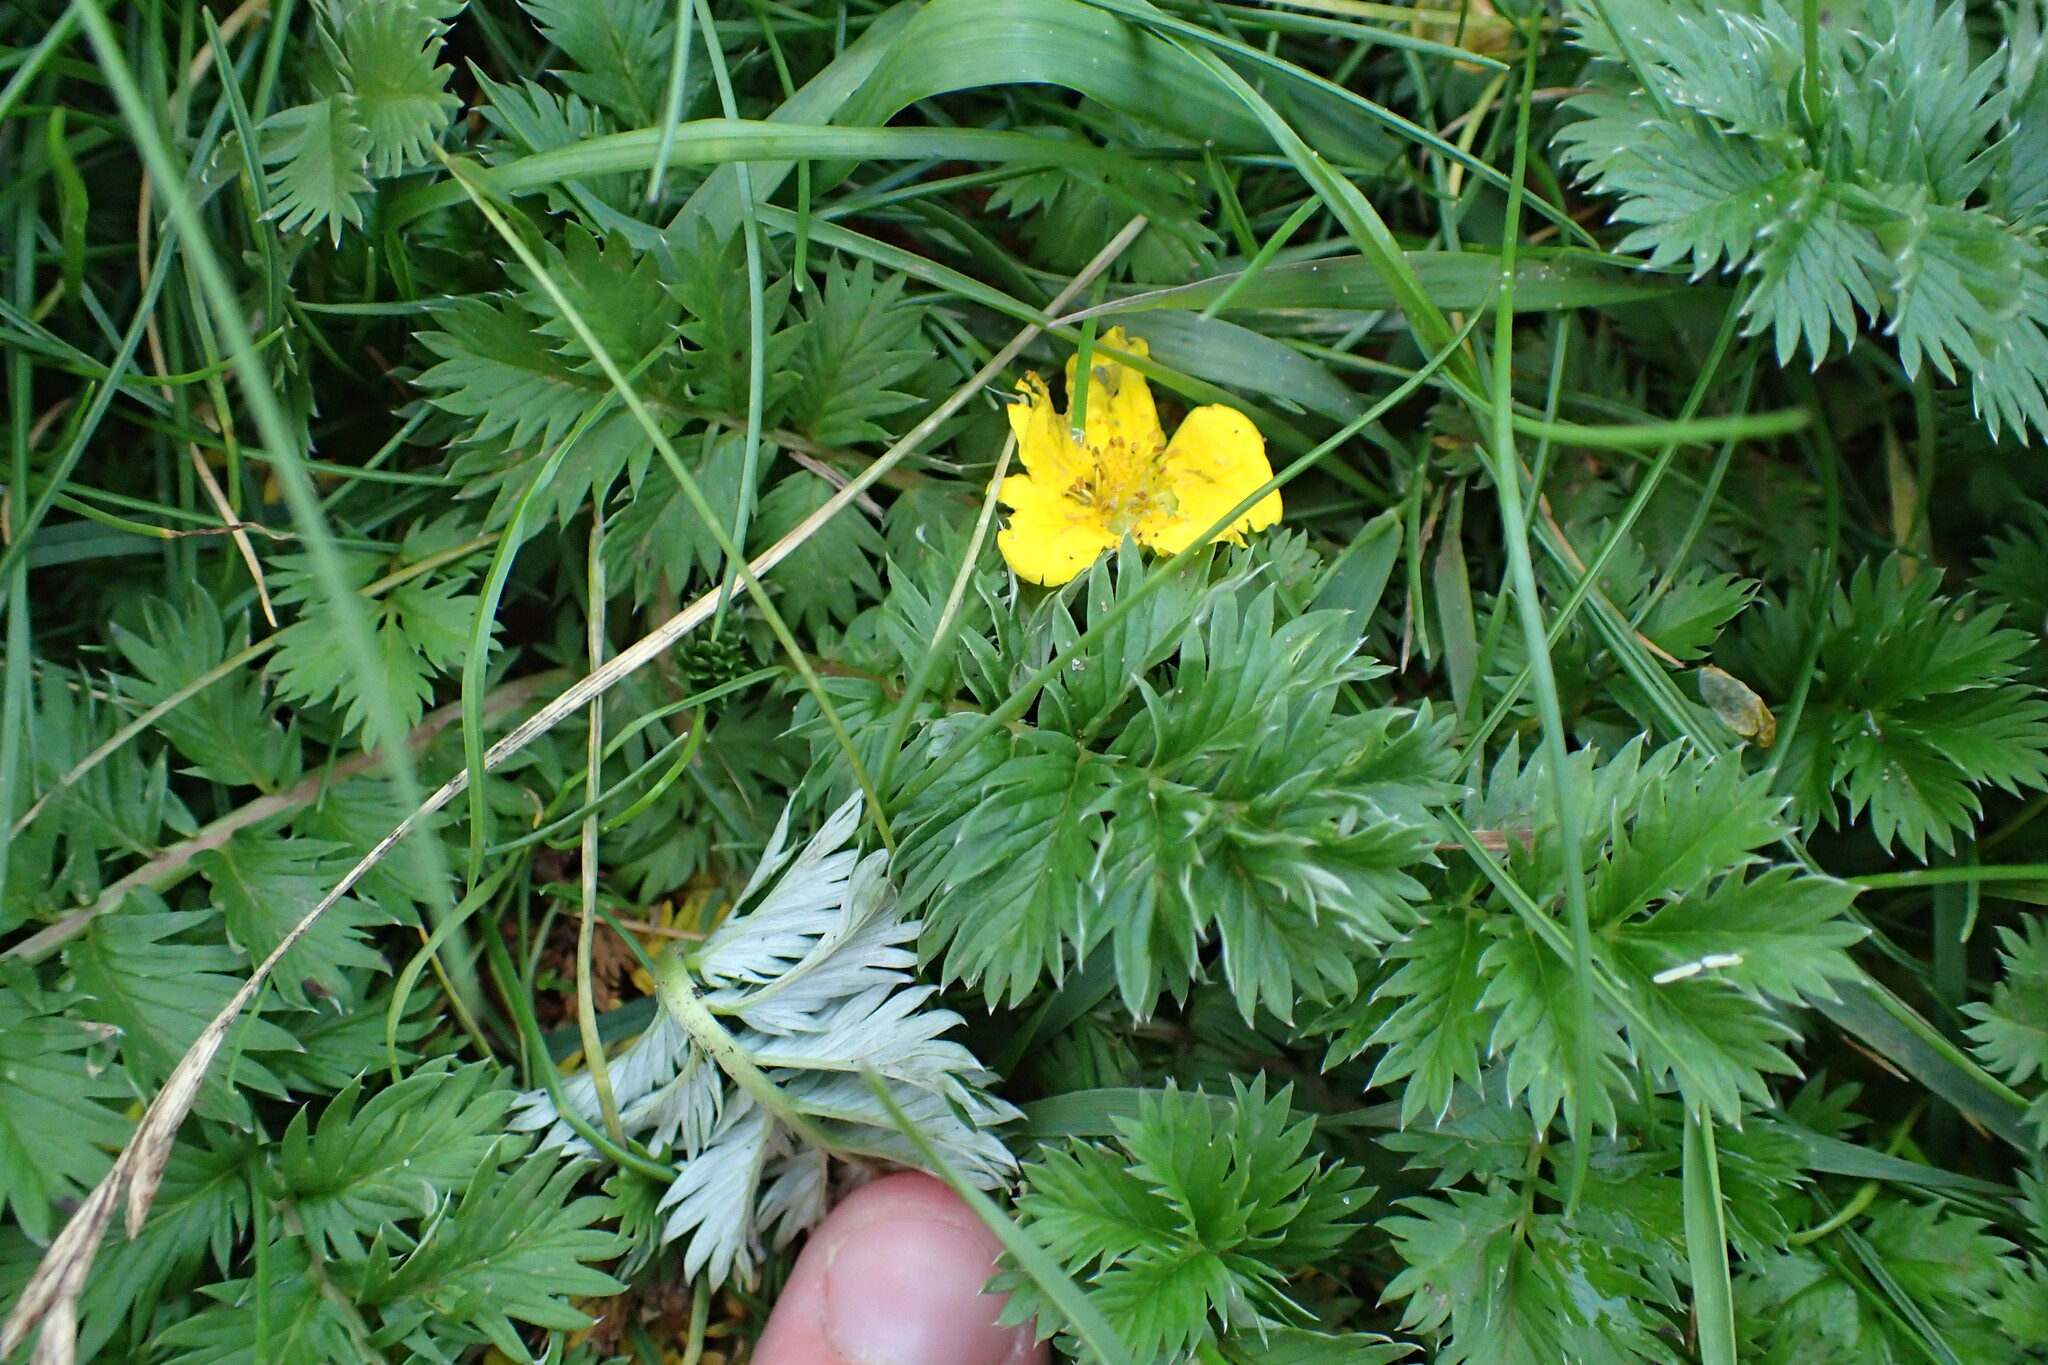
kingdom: Plantae
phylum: Tracheophyta
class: Magnoliopsida
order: Rosales
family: Rosaceae
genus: Argentina
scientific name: Argentina anserina
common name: Common silverweed
